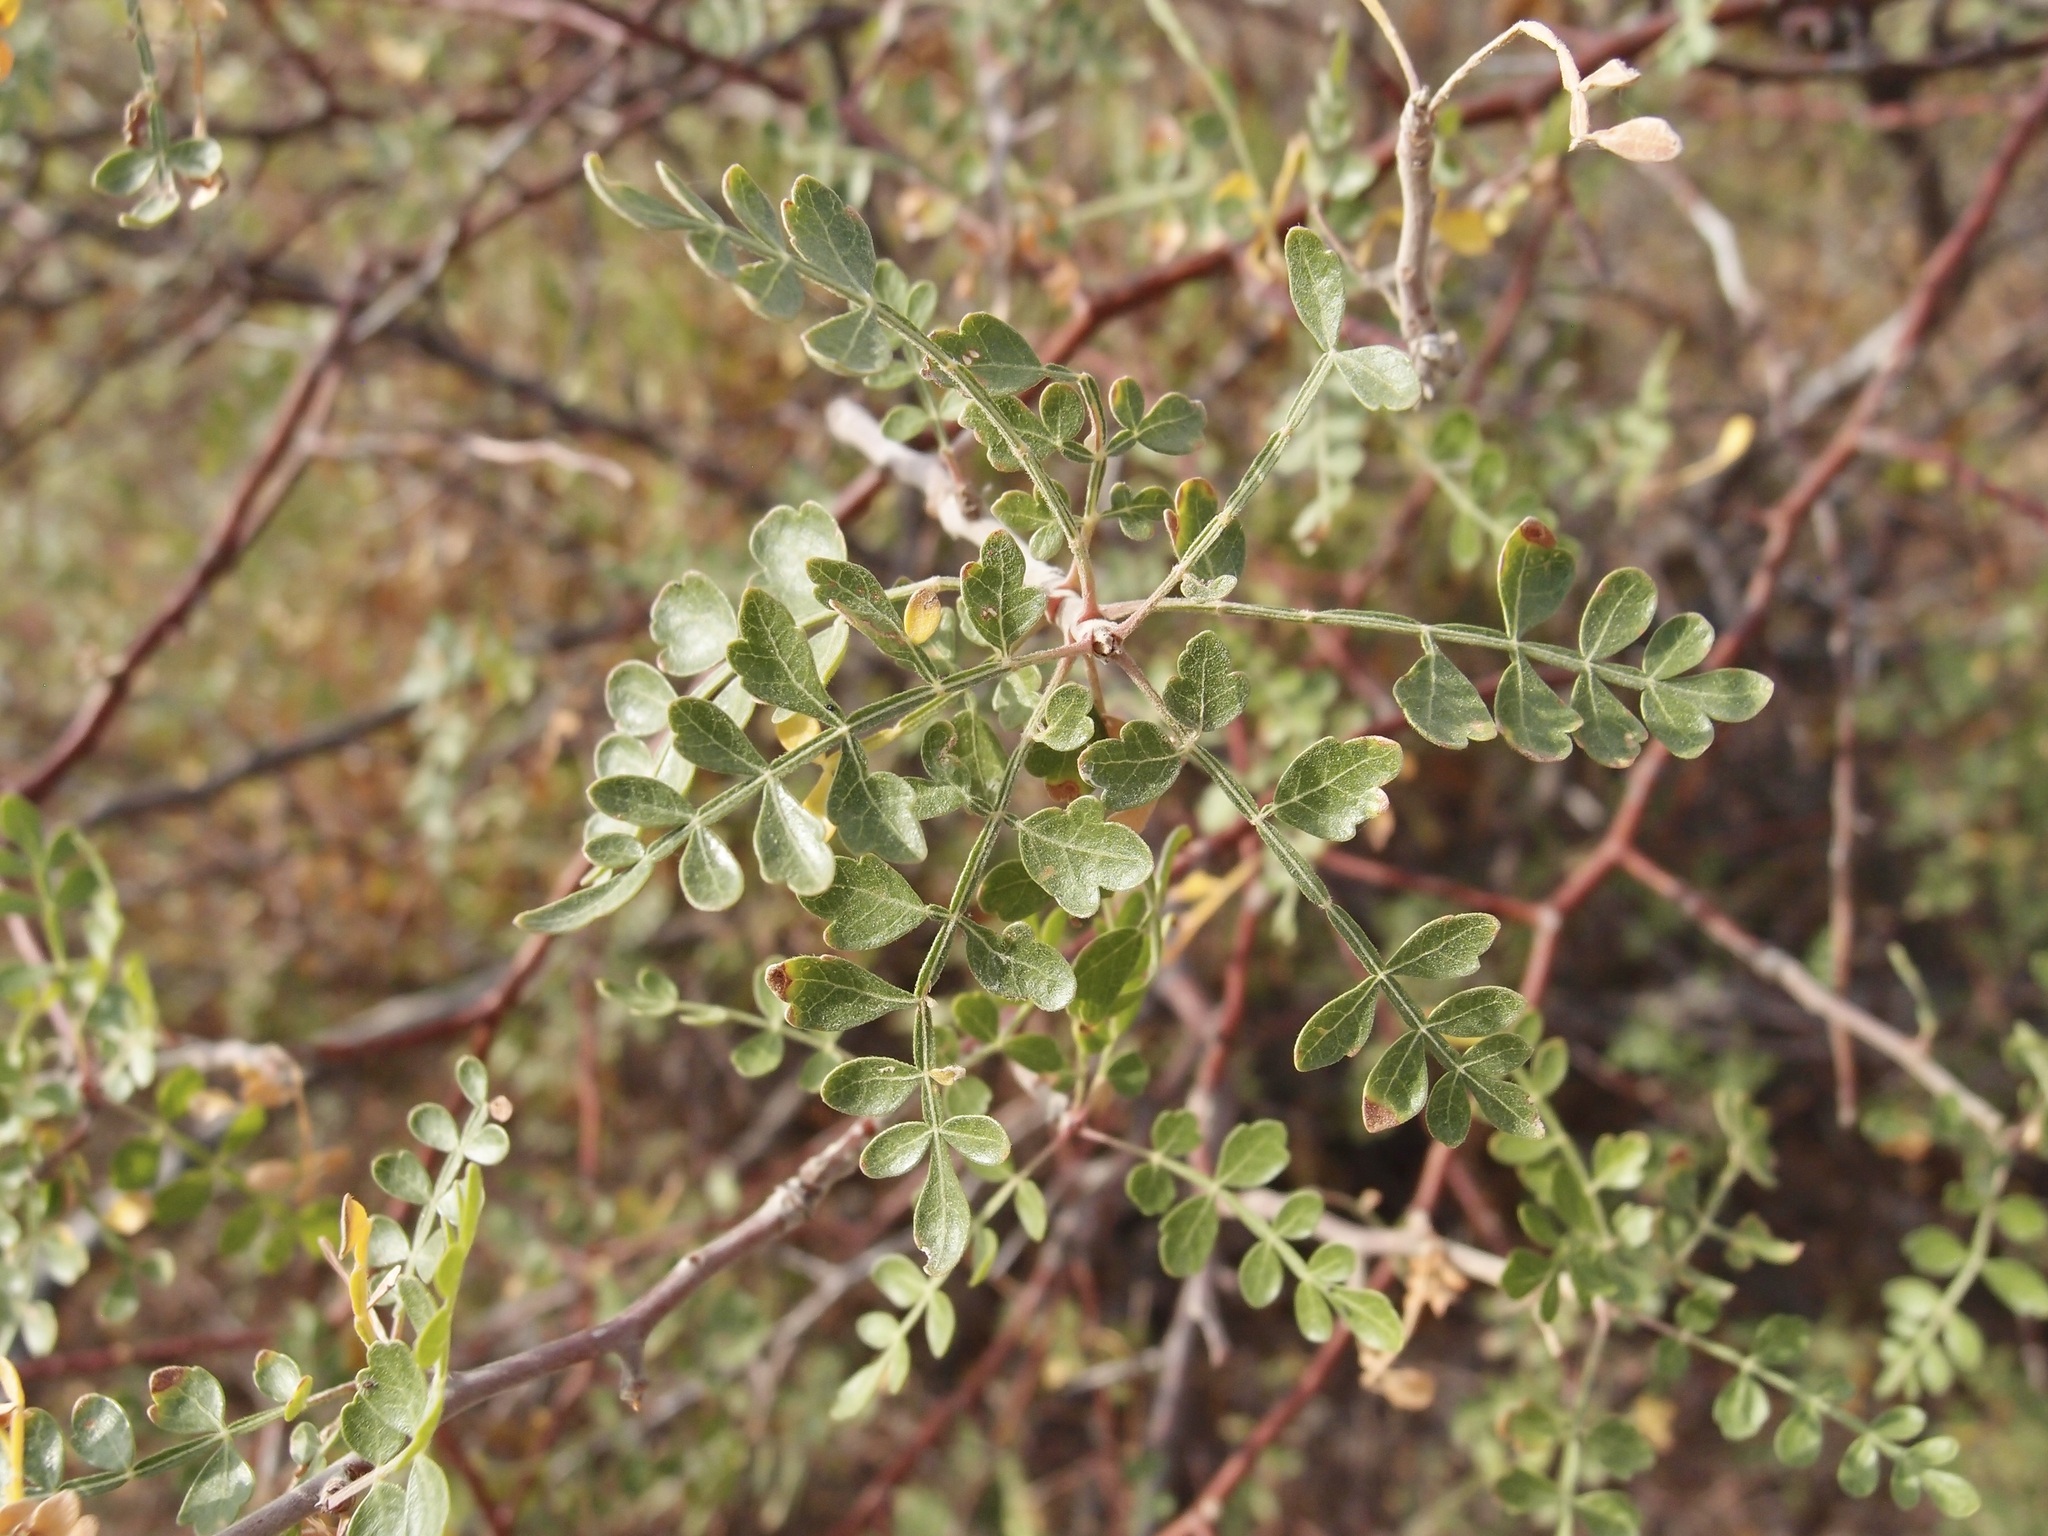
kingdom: Plantae
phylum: Tracheophyta
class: Magnoliopsida
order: Sapindales
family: Burseraceae
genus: Bursera
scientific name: Bursera laxiflora
